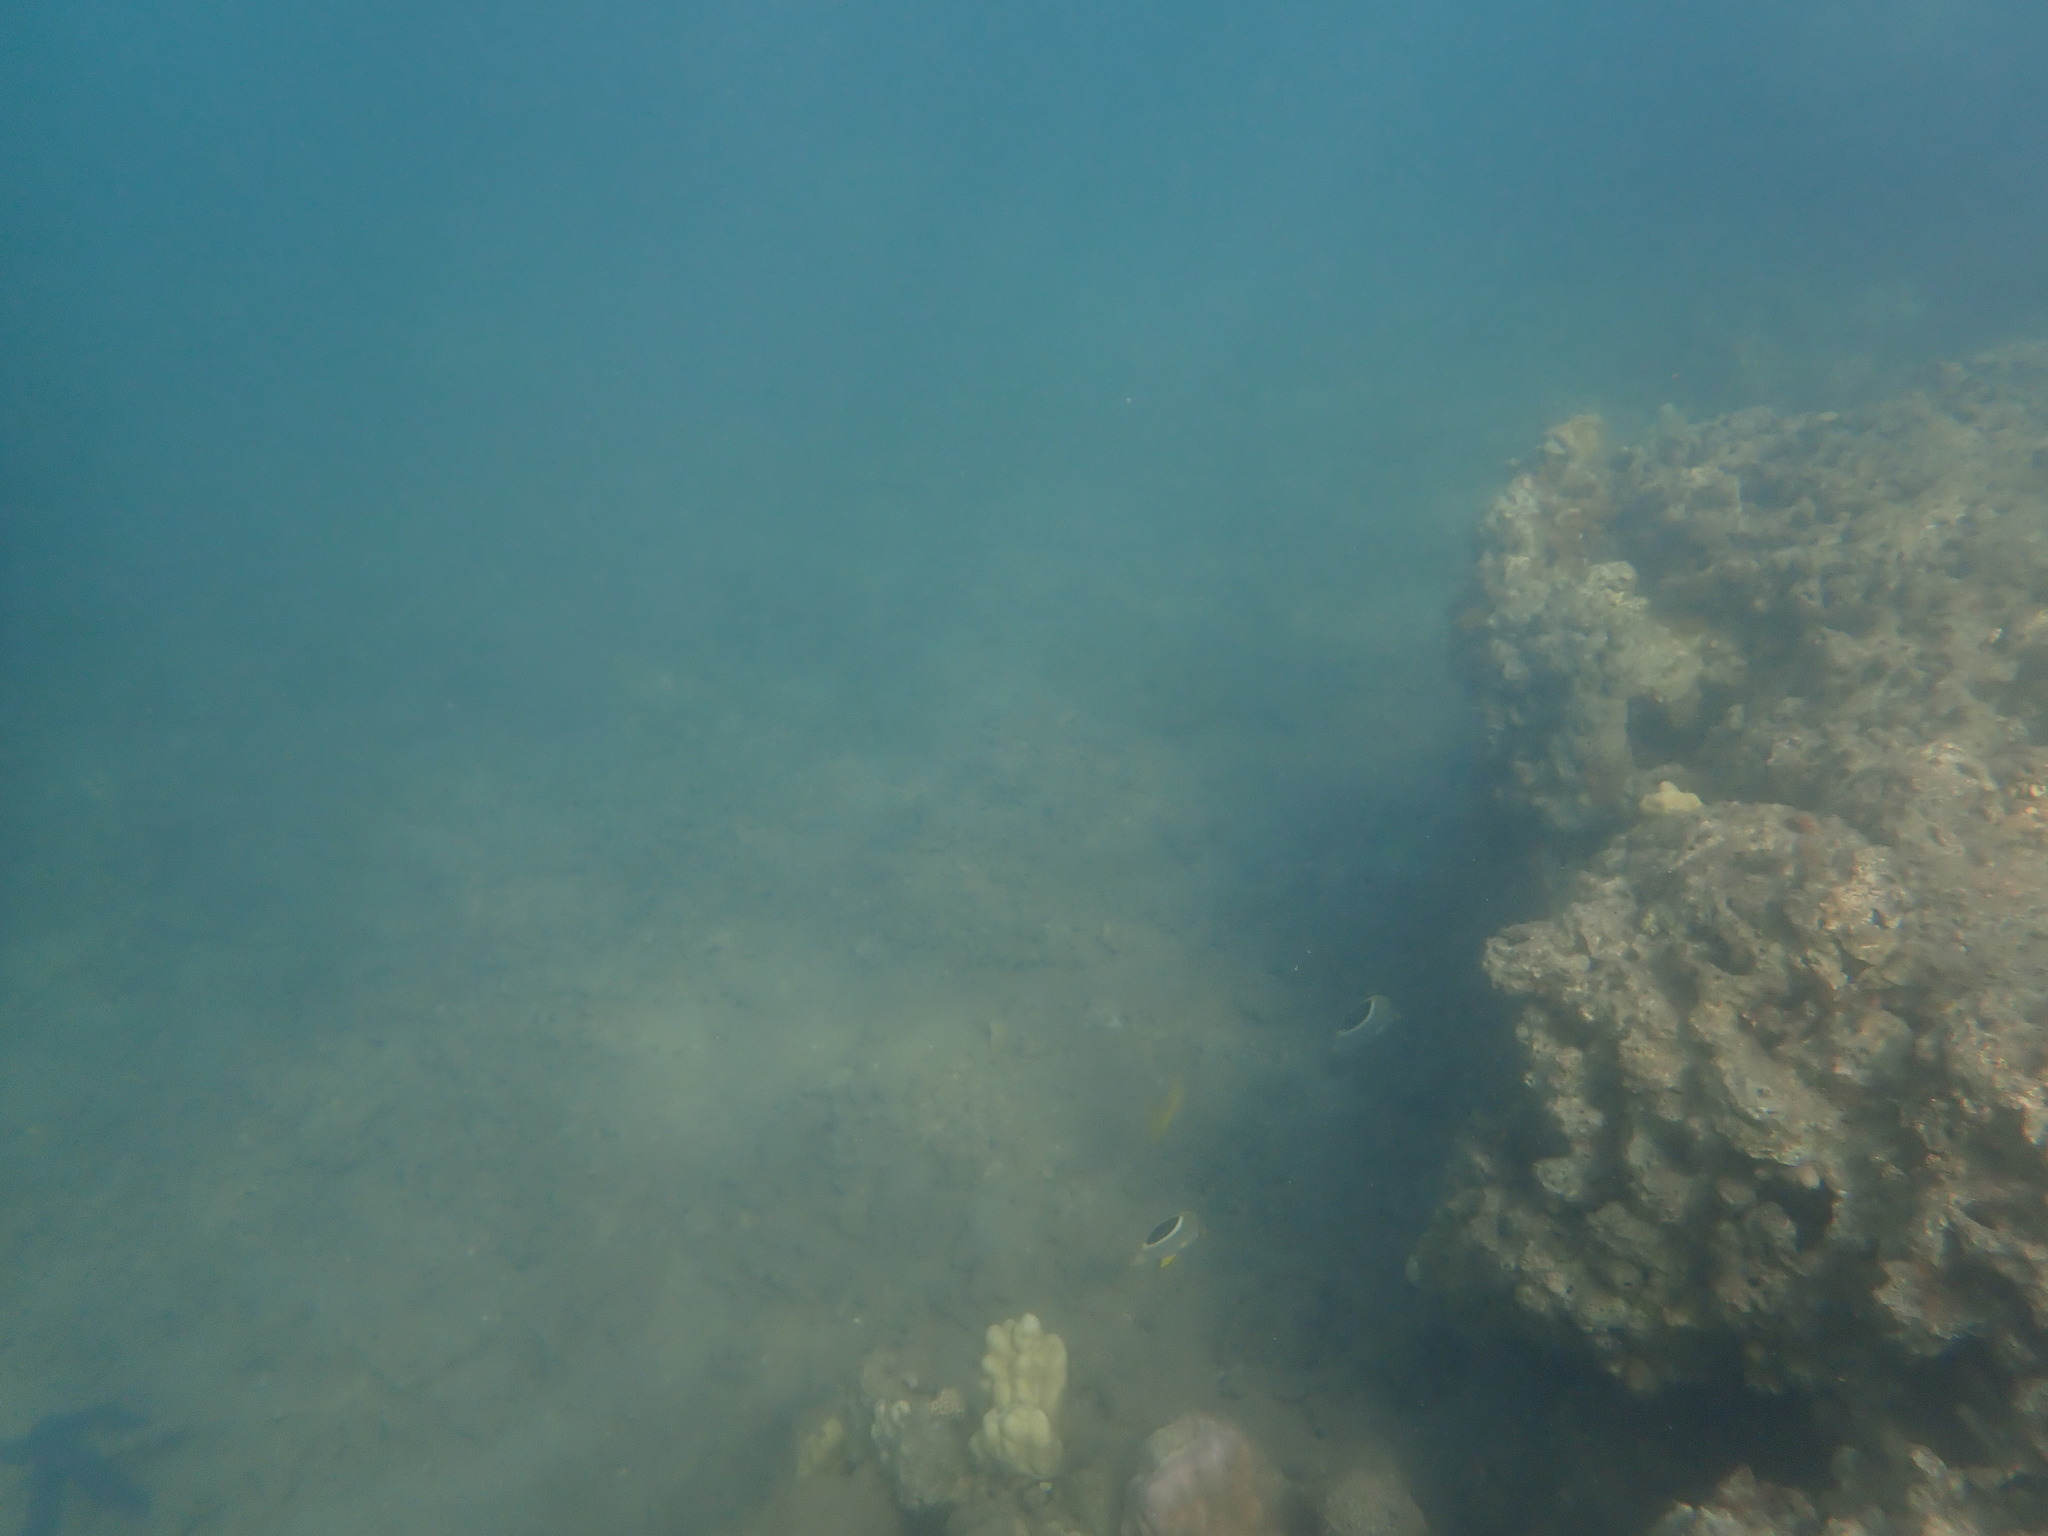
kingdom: Animalia
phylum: Chordata
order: Perciformes
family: Chaetodontidae
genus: Chaetodon
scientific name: Chaetodon ephippium
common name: Saddled butterflyfish
